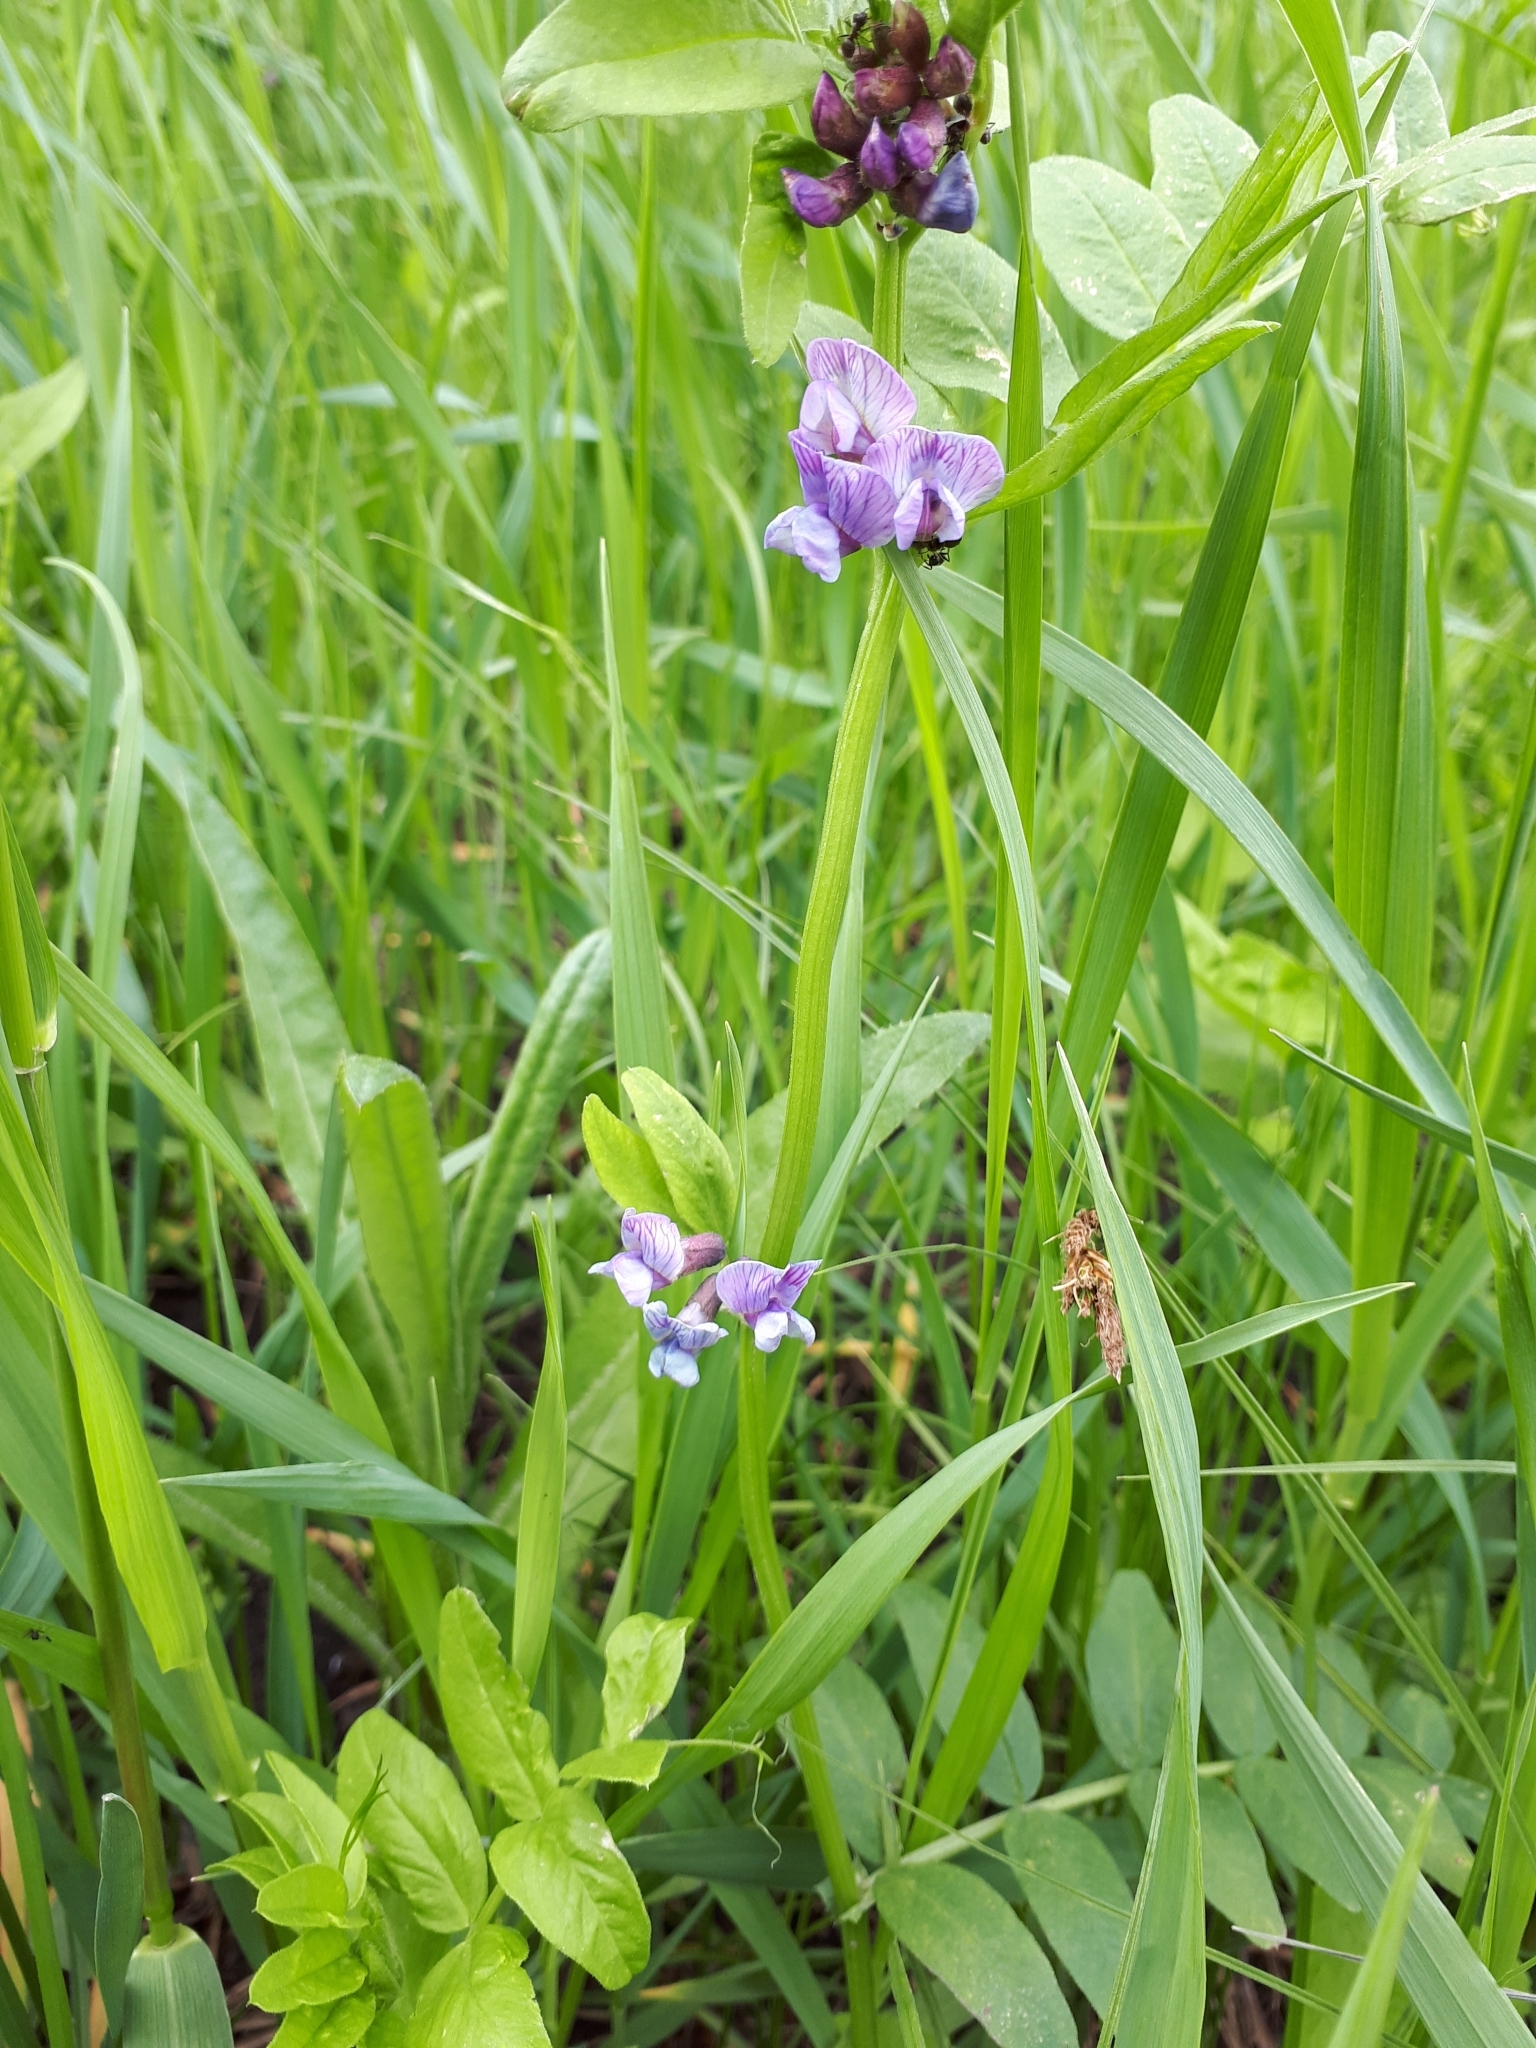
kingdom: Plantae
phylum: Tracheophyta
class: Magnoliopsida
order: Fabales
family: Fabaceae
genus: Vicia
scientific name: Vicia sepium
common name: Bush vetch
